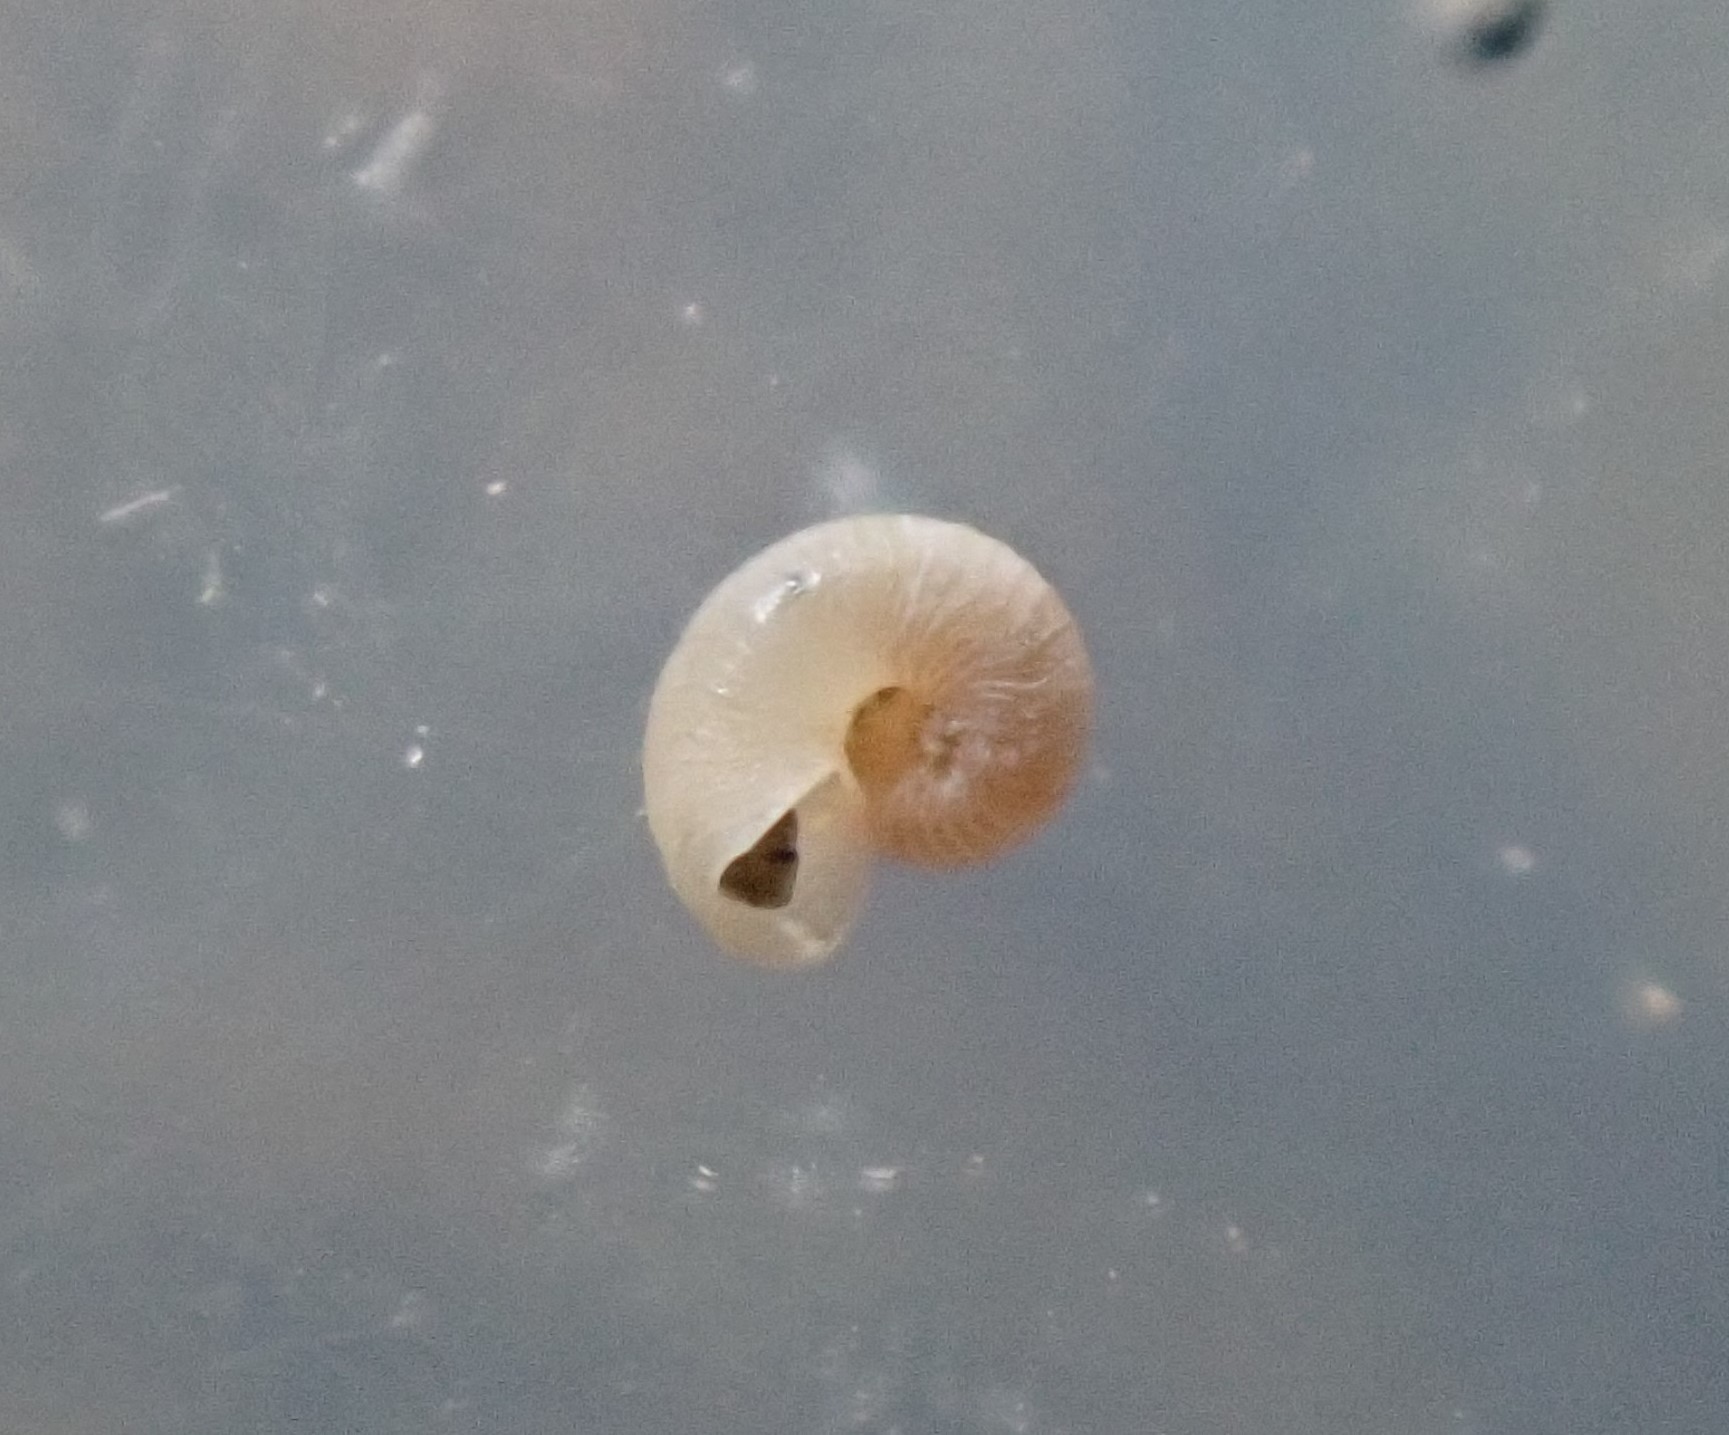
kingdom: Animalia
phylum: Mollusca
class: Gastropoda
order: Trochida
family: Skeneidae
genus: Zalipais
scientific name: Zalipais lissa
